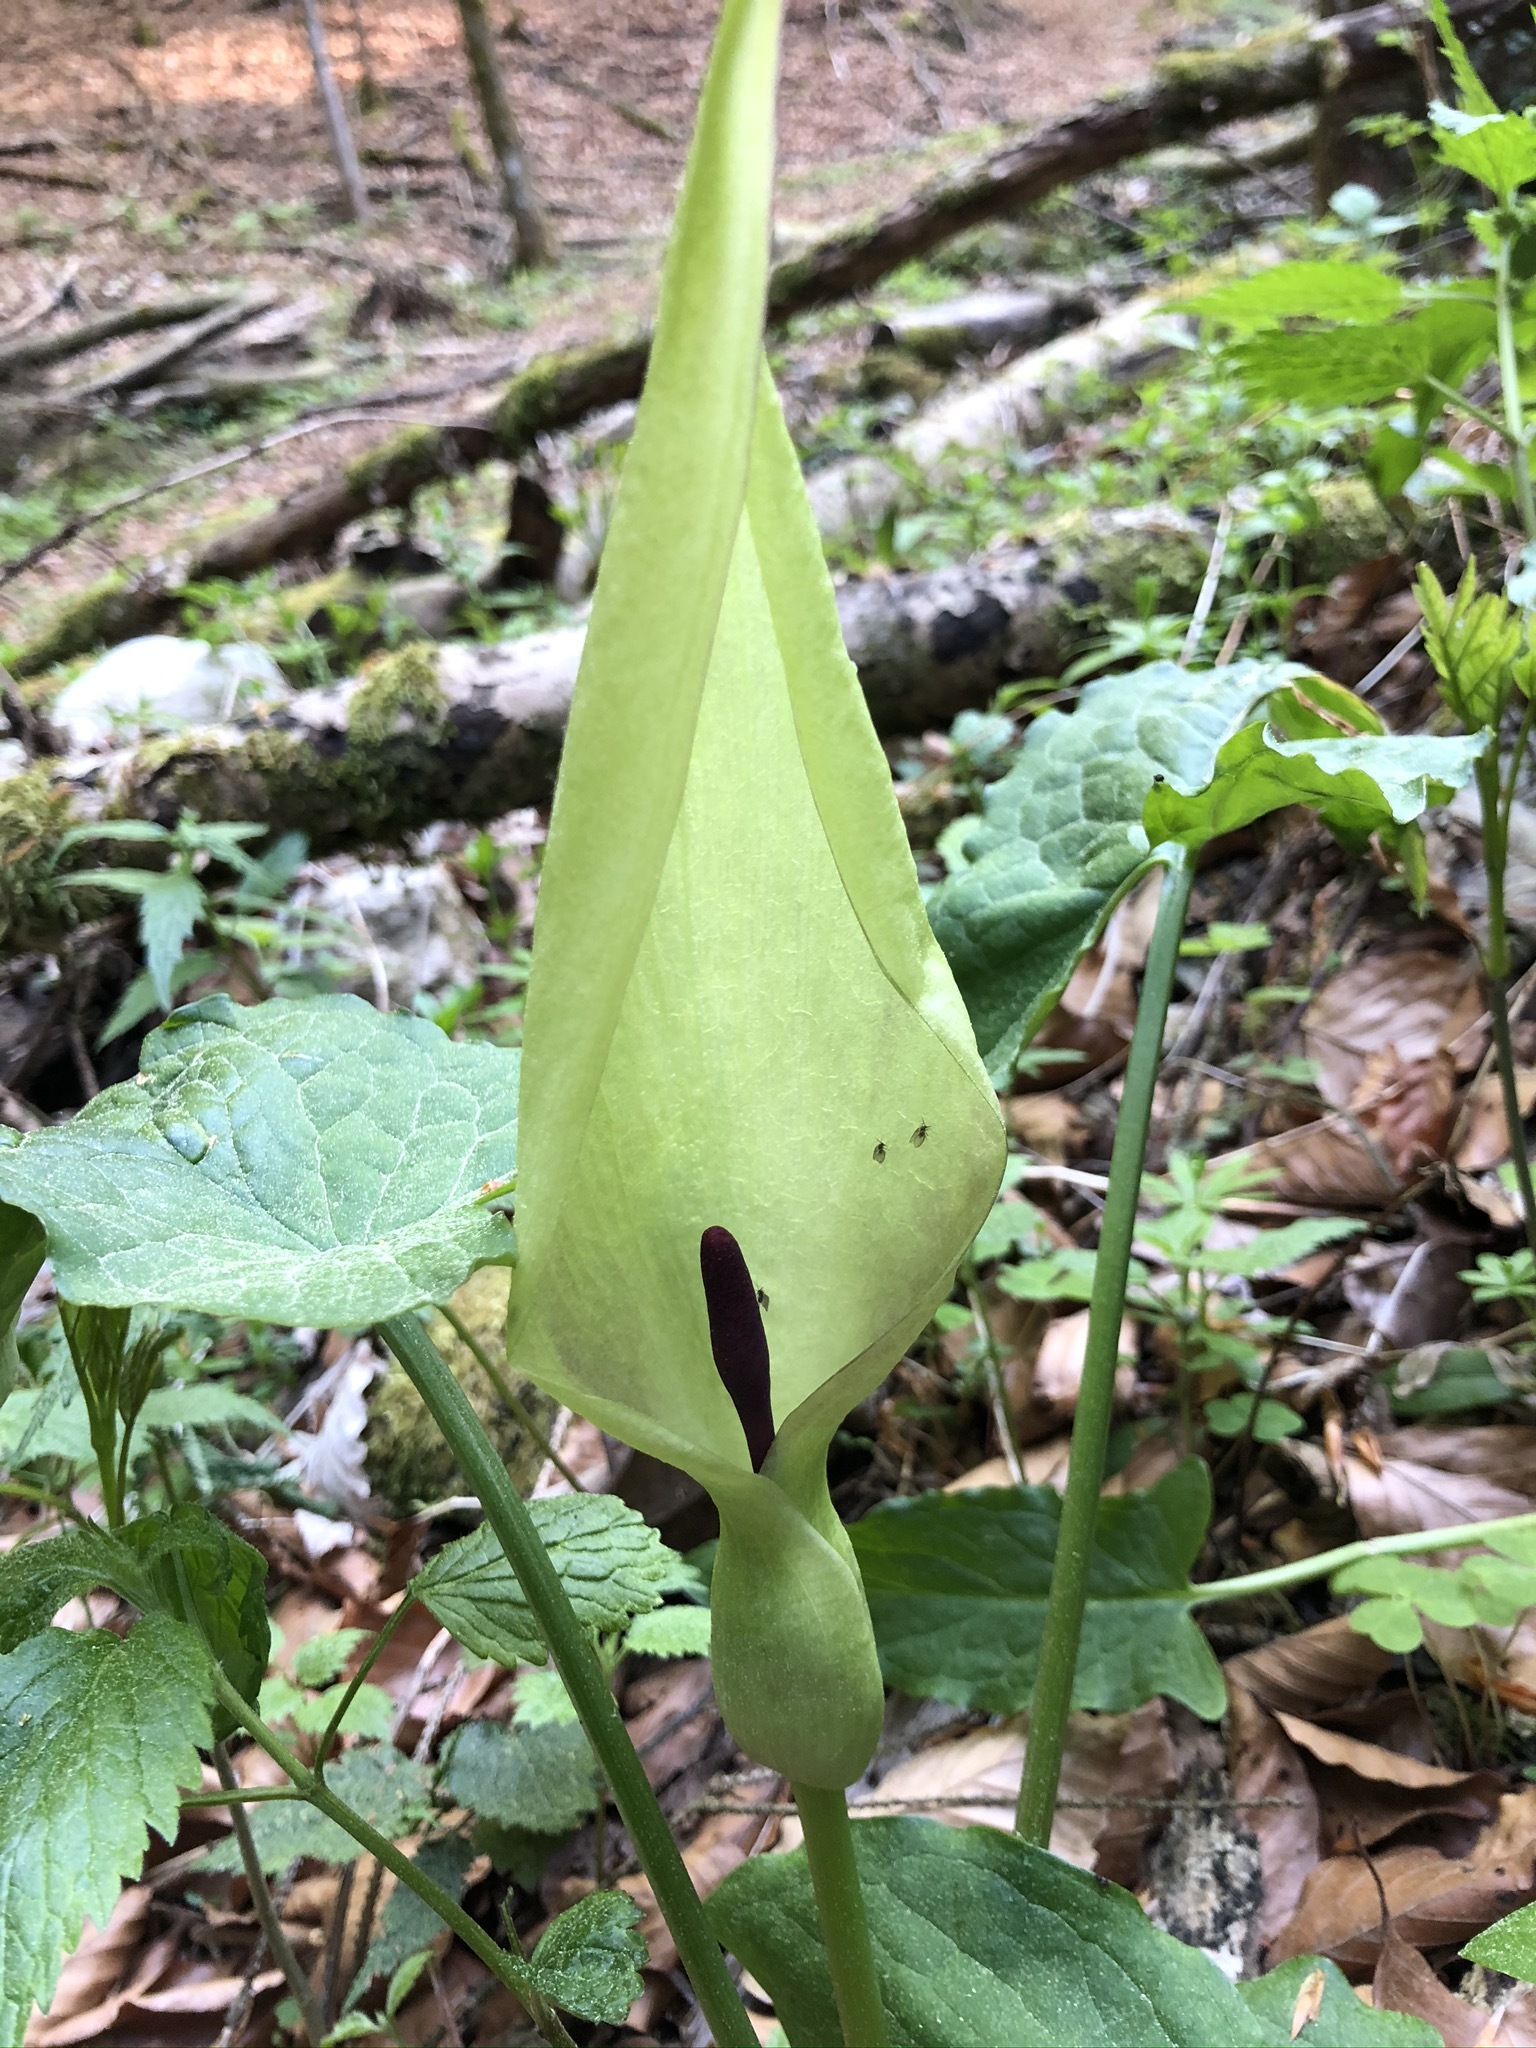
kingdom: Plantae
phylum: Tracheophyta
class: Liliopsida
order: Alismatales
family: Araceae
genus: Arum
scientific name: Arum maculatum
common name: Lords-and-ladies
